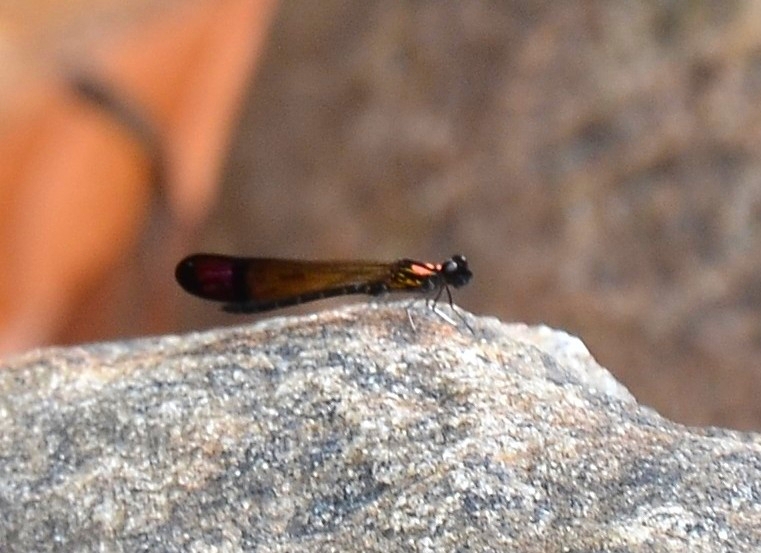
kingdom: Animalia
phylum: Arthropoda
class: Insecta
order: Odonata
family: Chlorocyphidae
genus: Heliocypha
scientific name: Heliocypha bisignata
